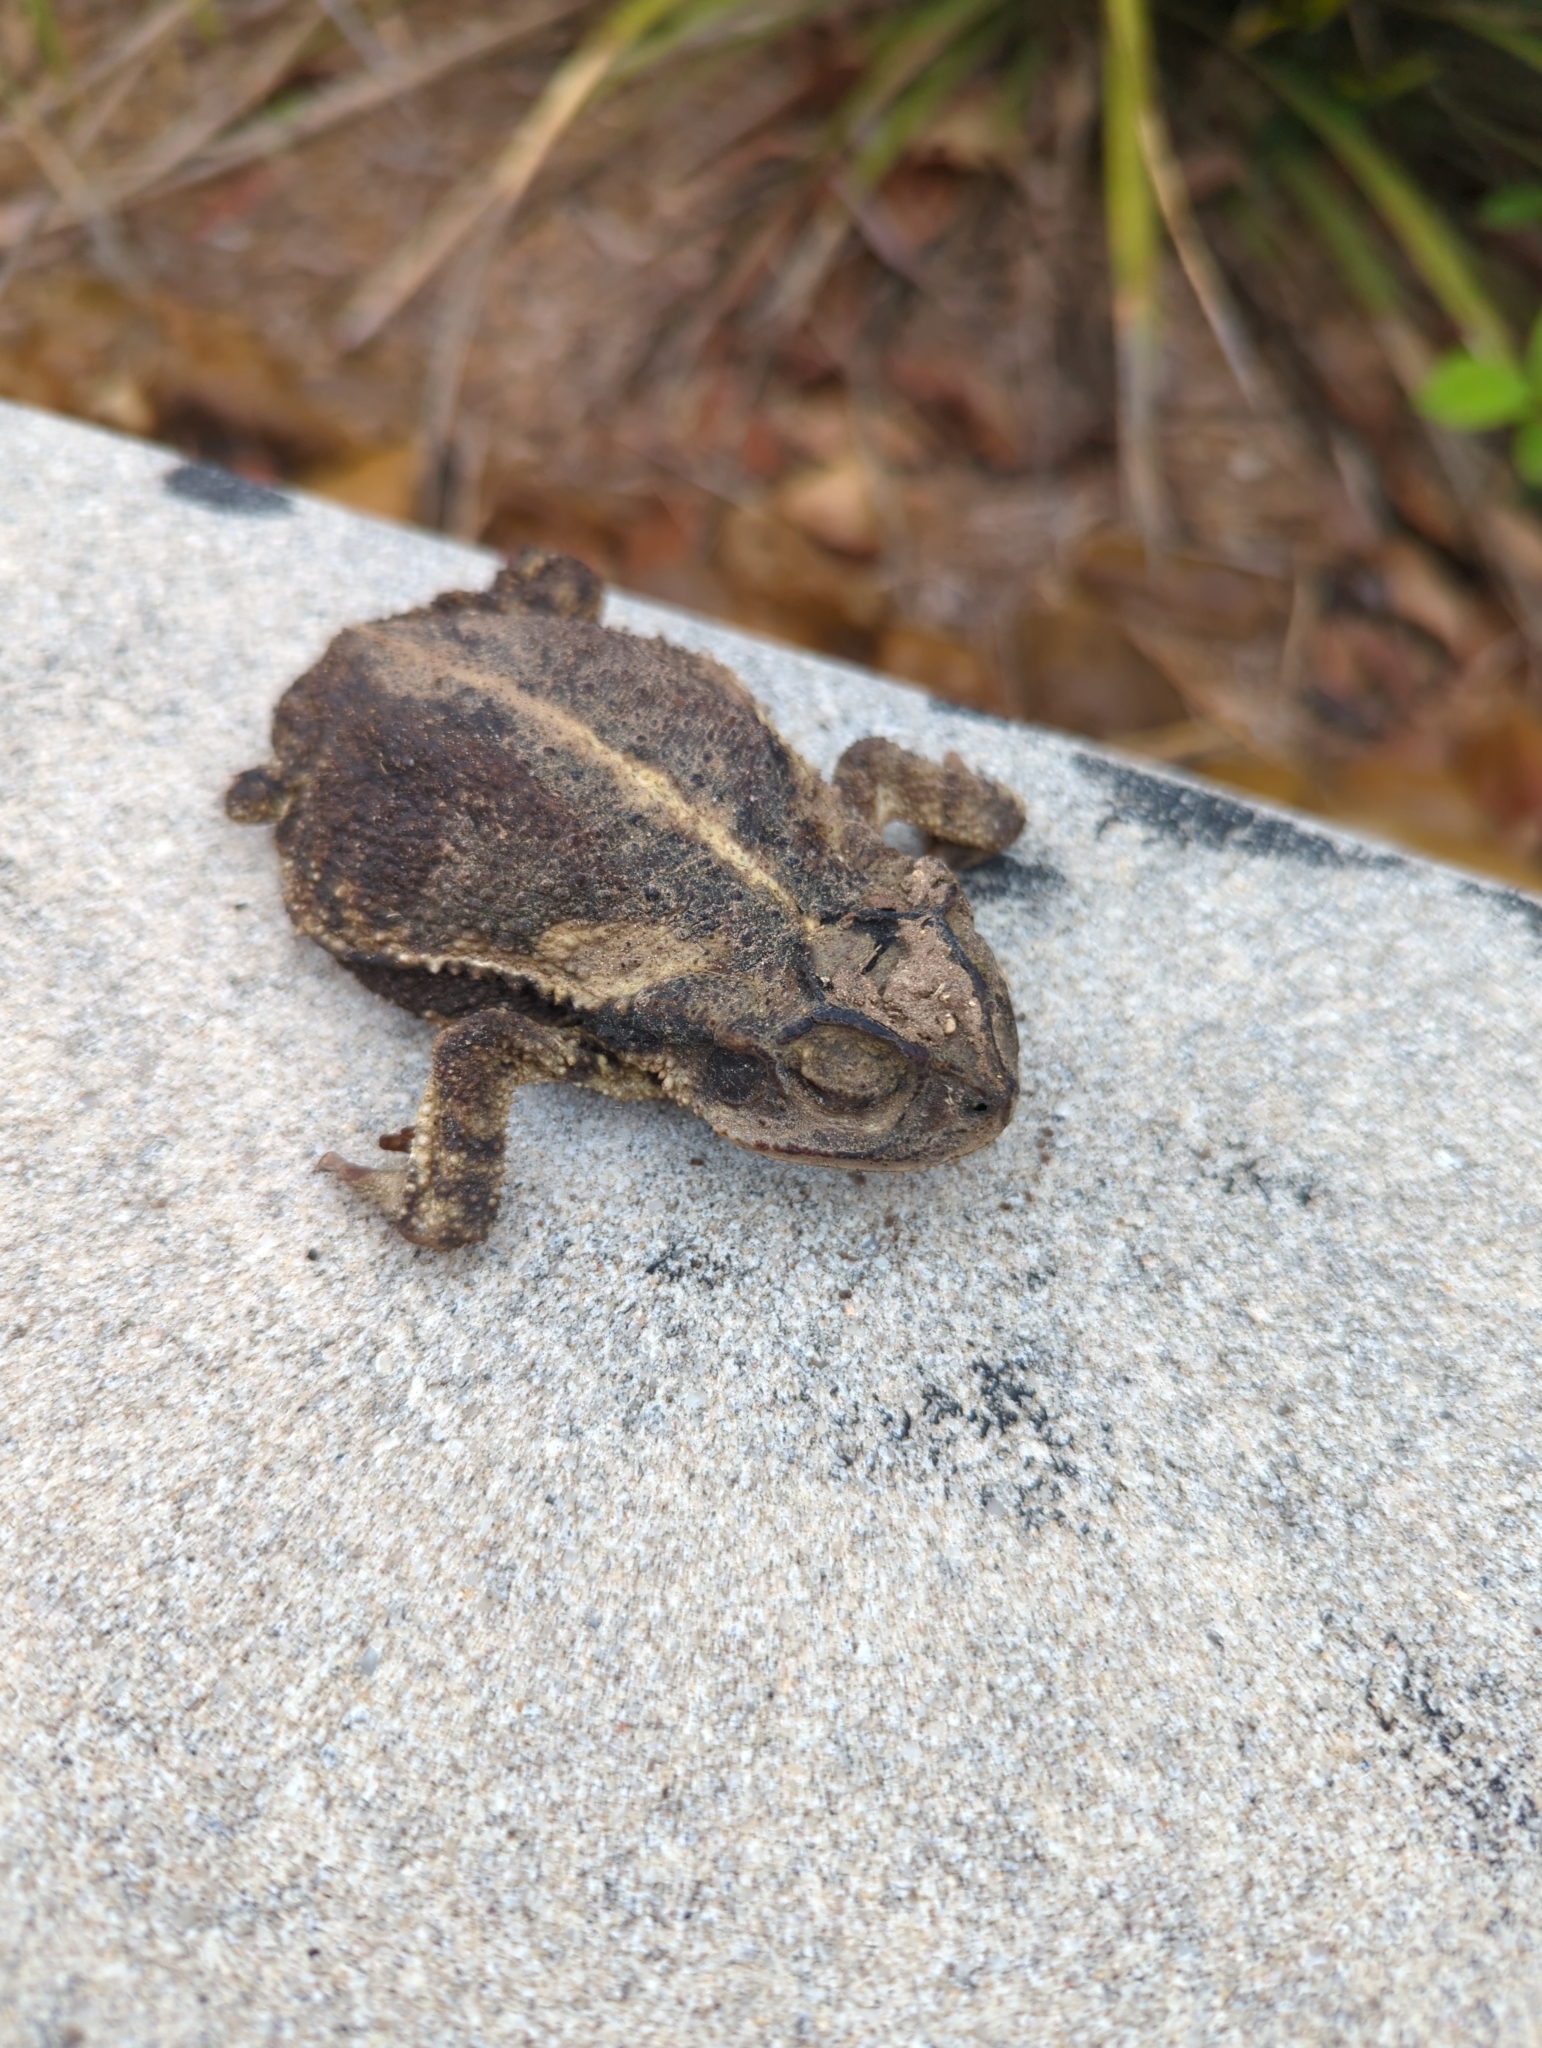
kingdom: Animalia
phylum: Chordata
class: Amphibia
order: Anura
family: Bufonidae
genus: Incilius
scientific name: Incilius nebulifer
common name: Gulf coast toad
